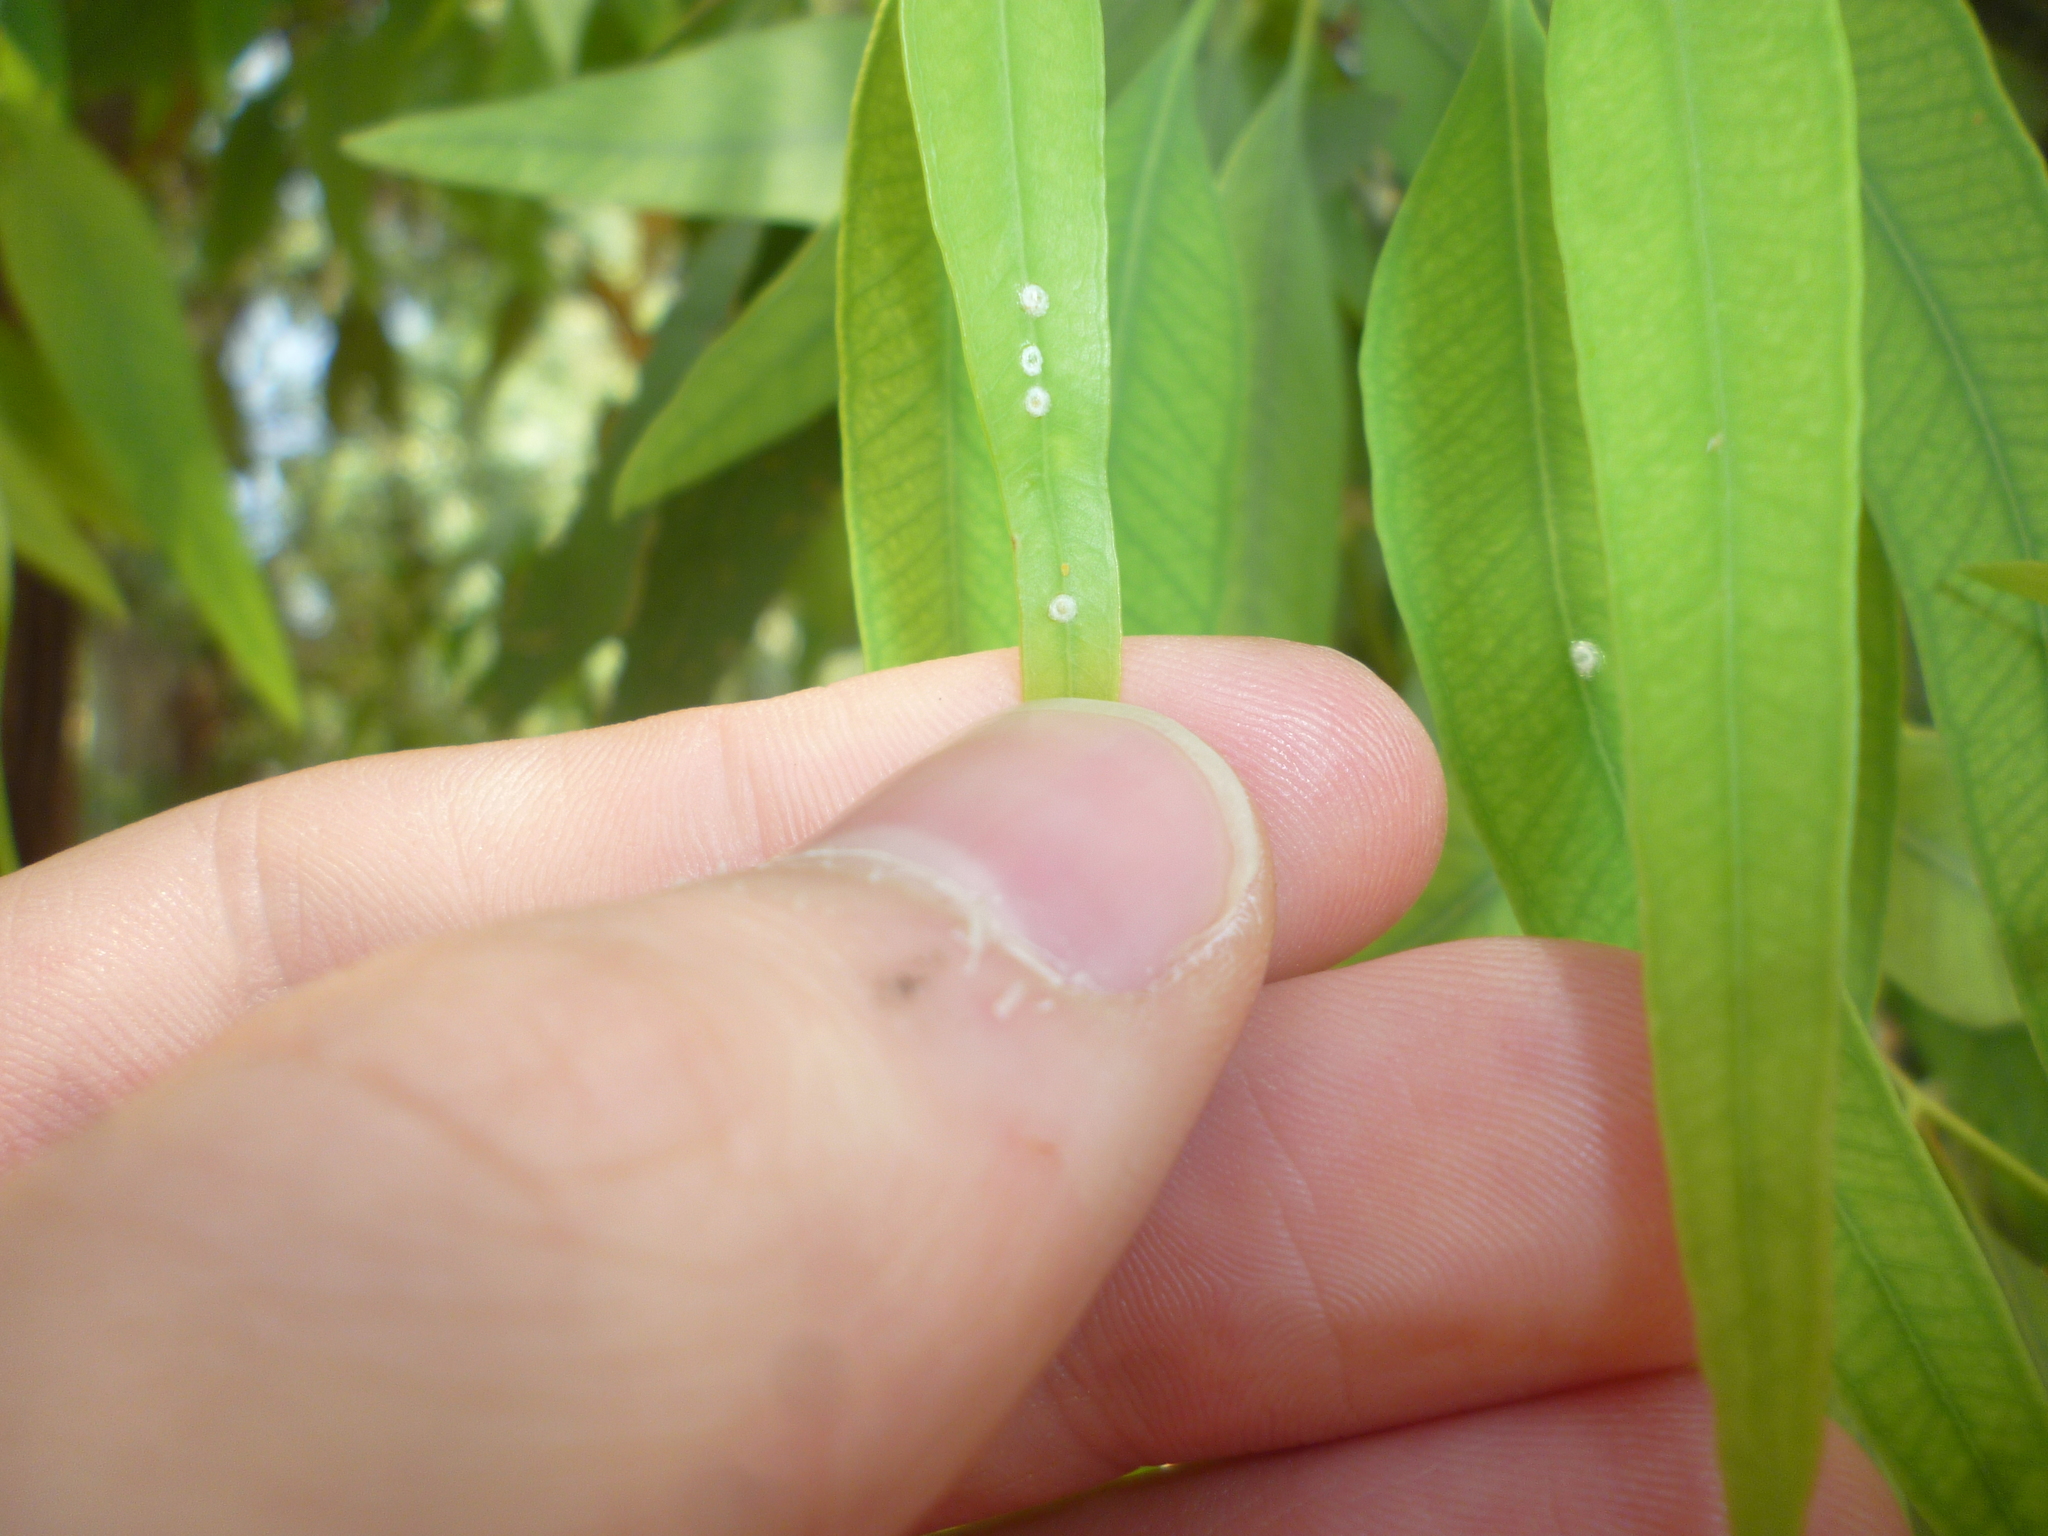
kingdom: Animalia
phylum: Arthropoda
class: Insecta
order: Hemiptera
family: Aphalaridae
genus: Glycaspis
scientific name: Glycaspis brimblecombei
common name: Red gum lerp psyllid
